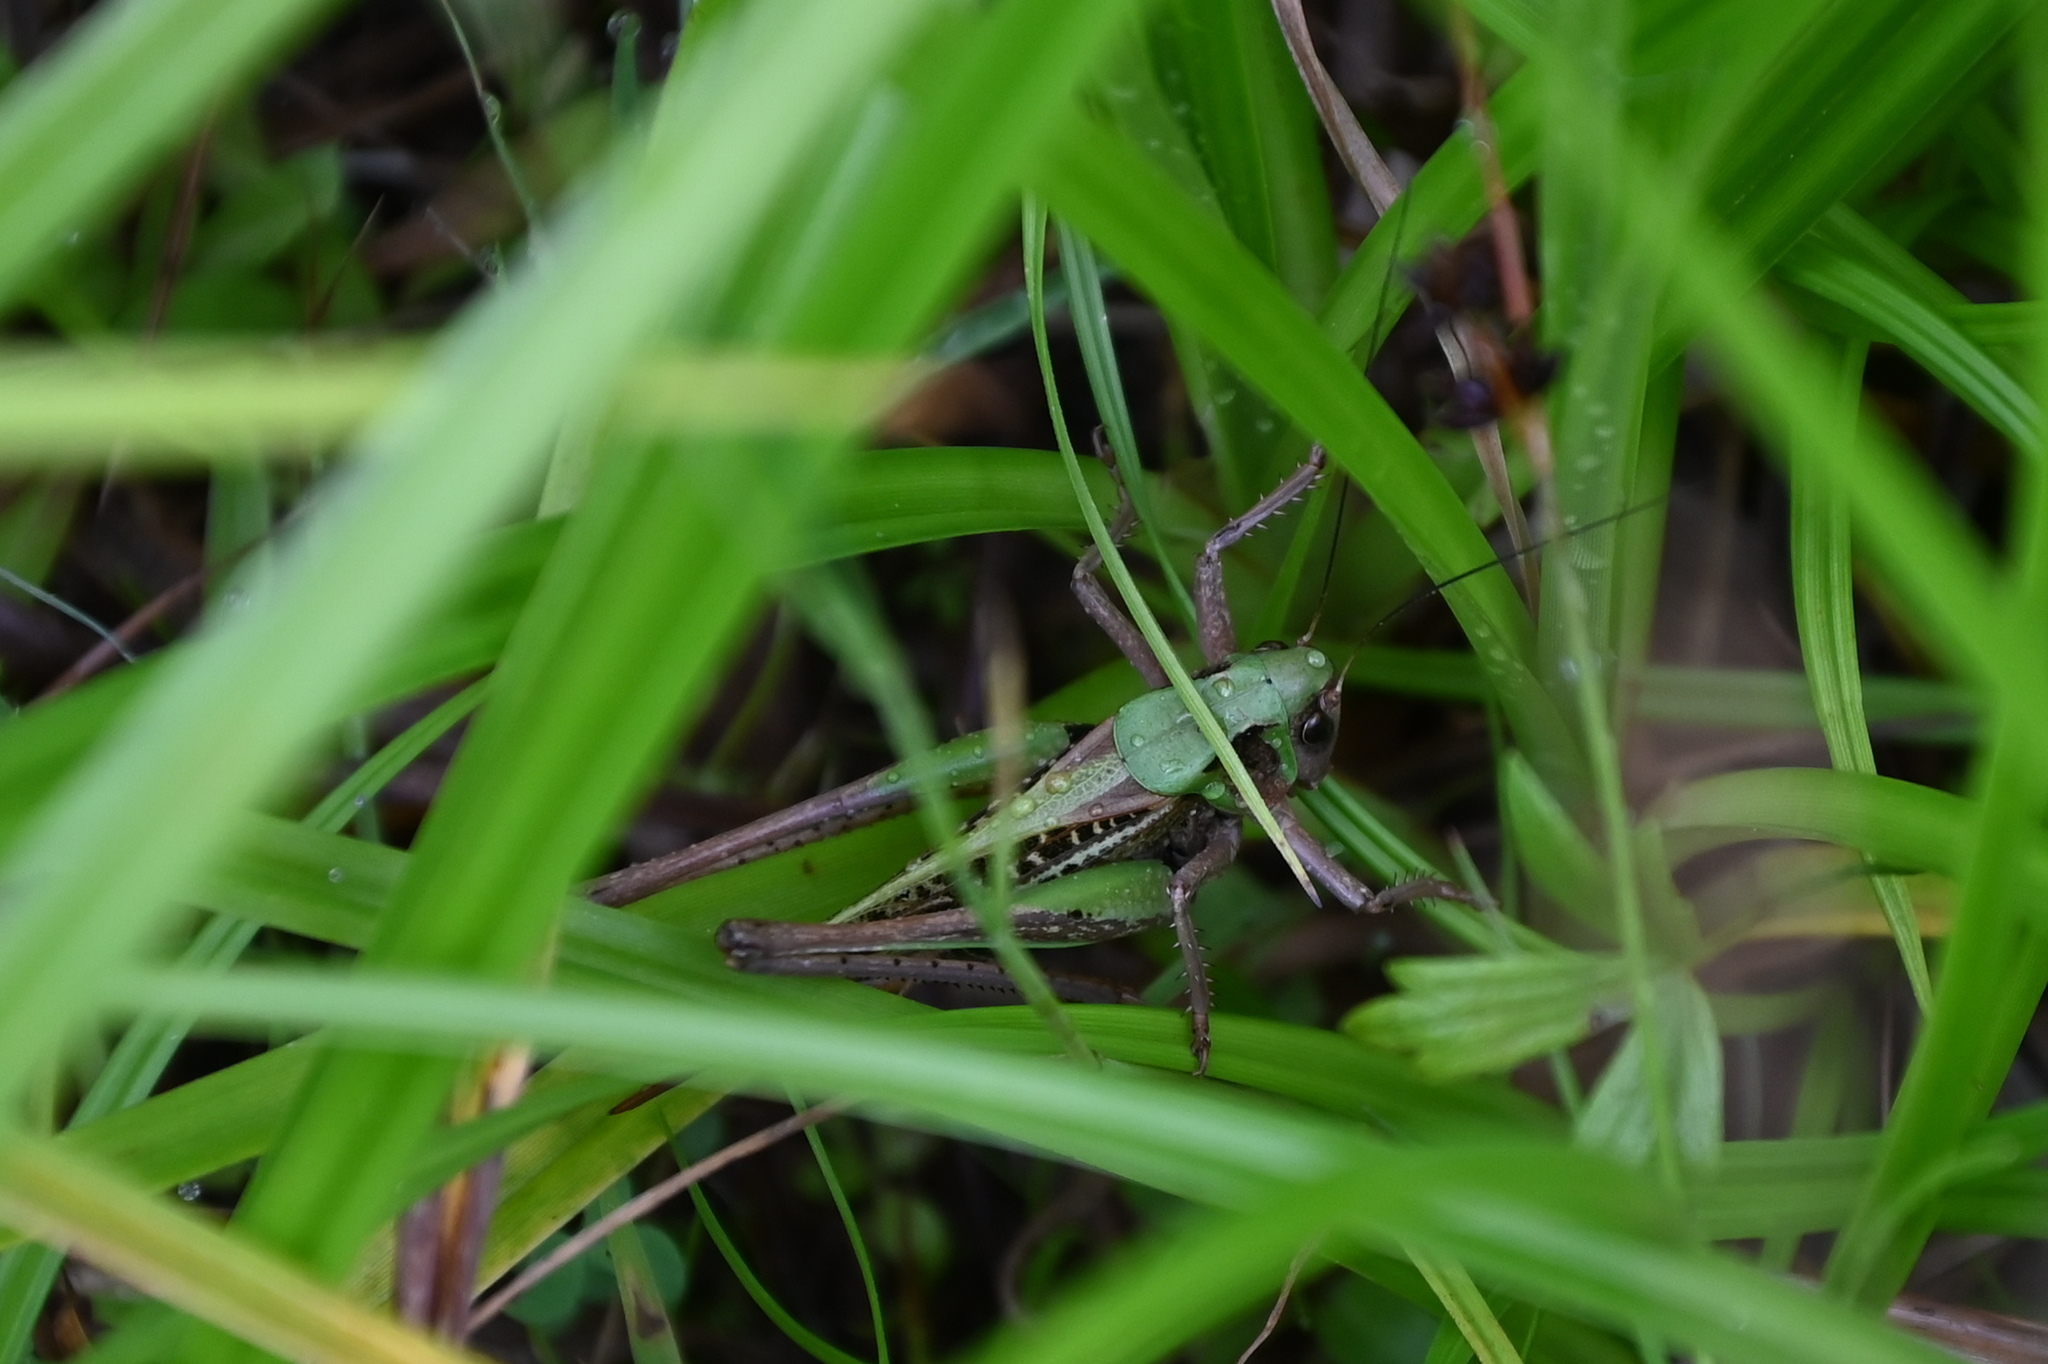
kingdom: Animalia
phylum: Arthropoda
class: Insecta
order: Orthoptera
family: Tettigoniidae
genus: Decticus
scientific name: Decticus verrucivorus
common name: Wart-biter
